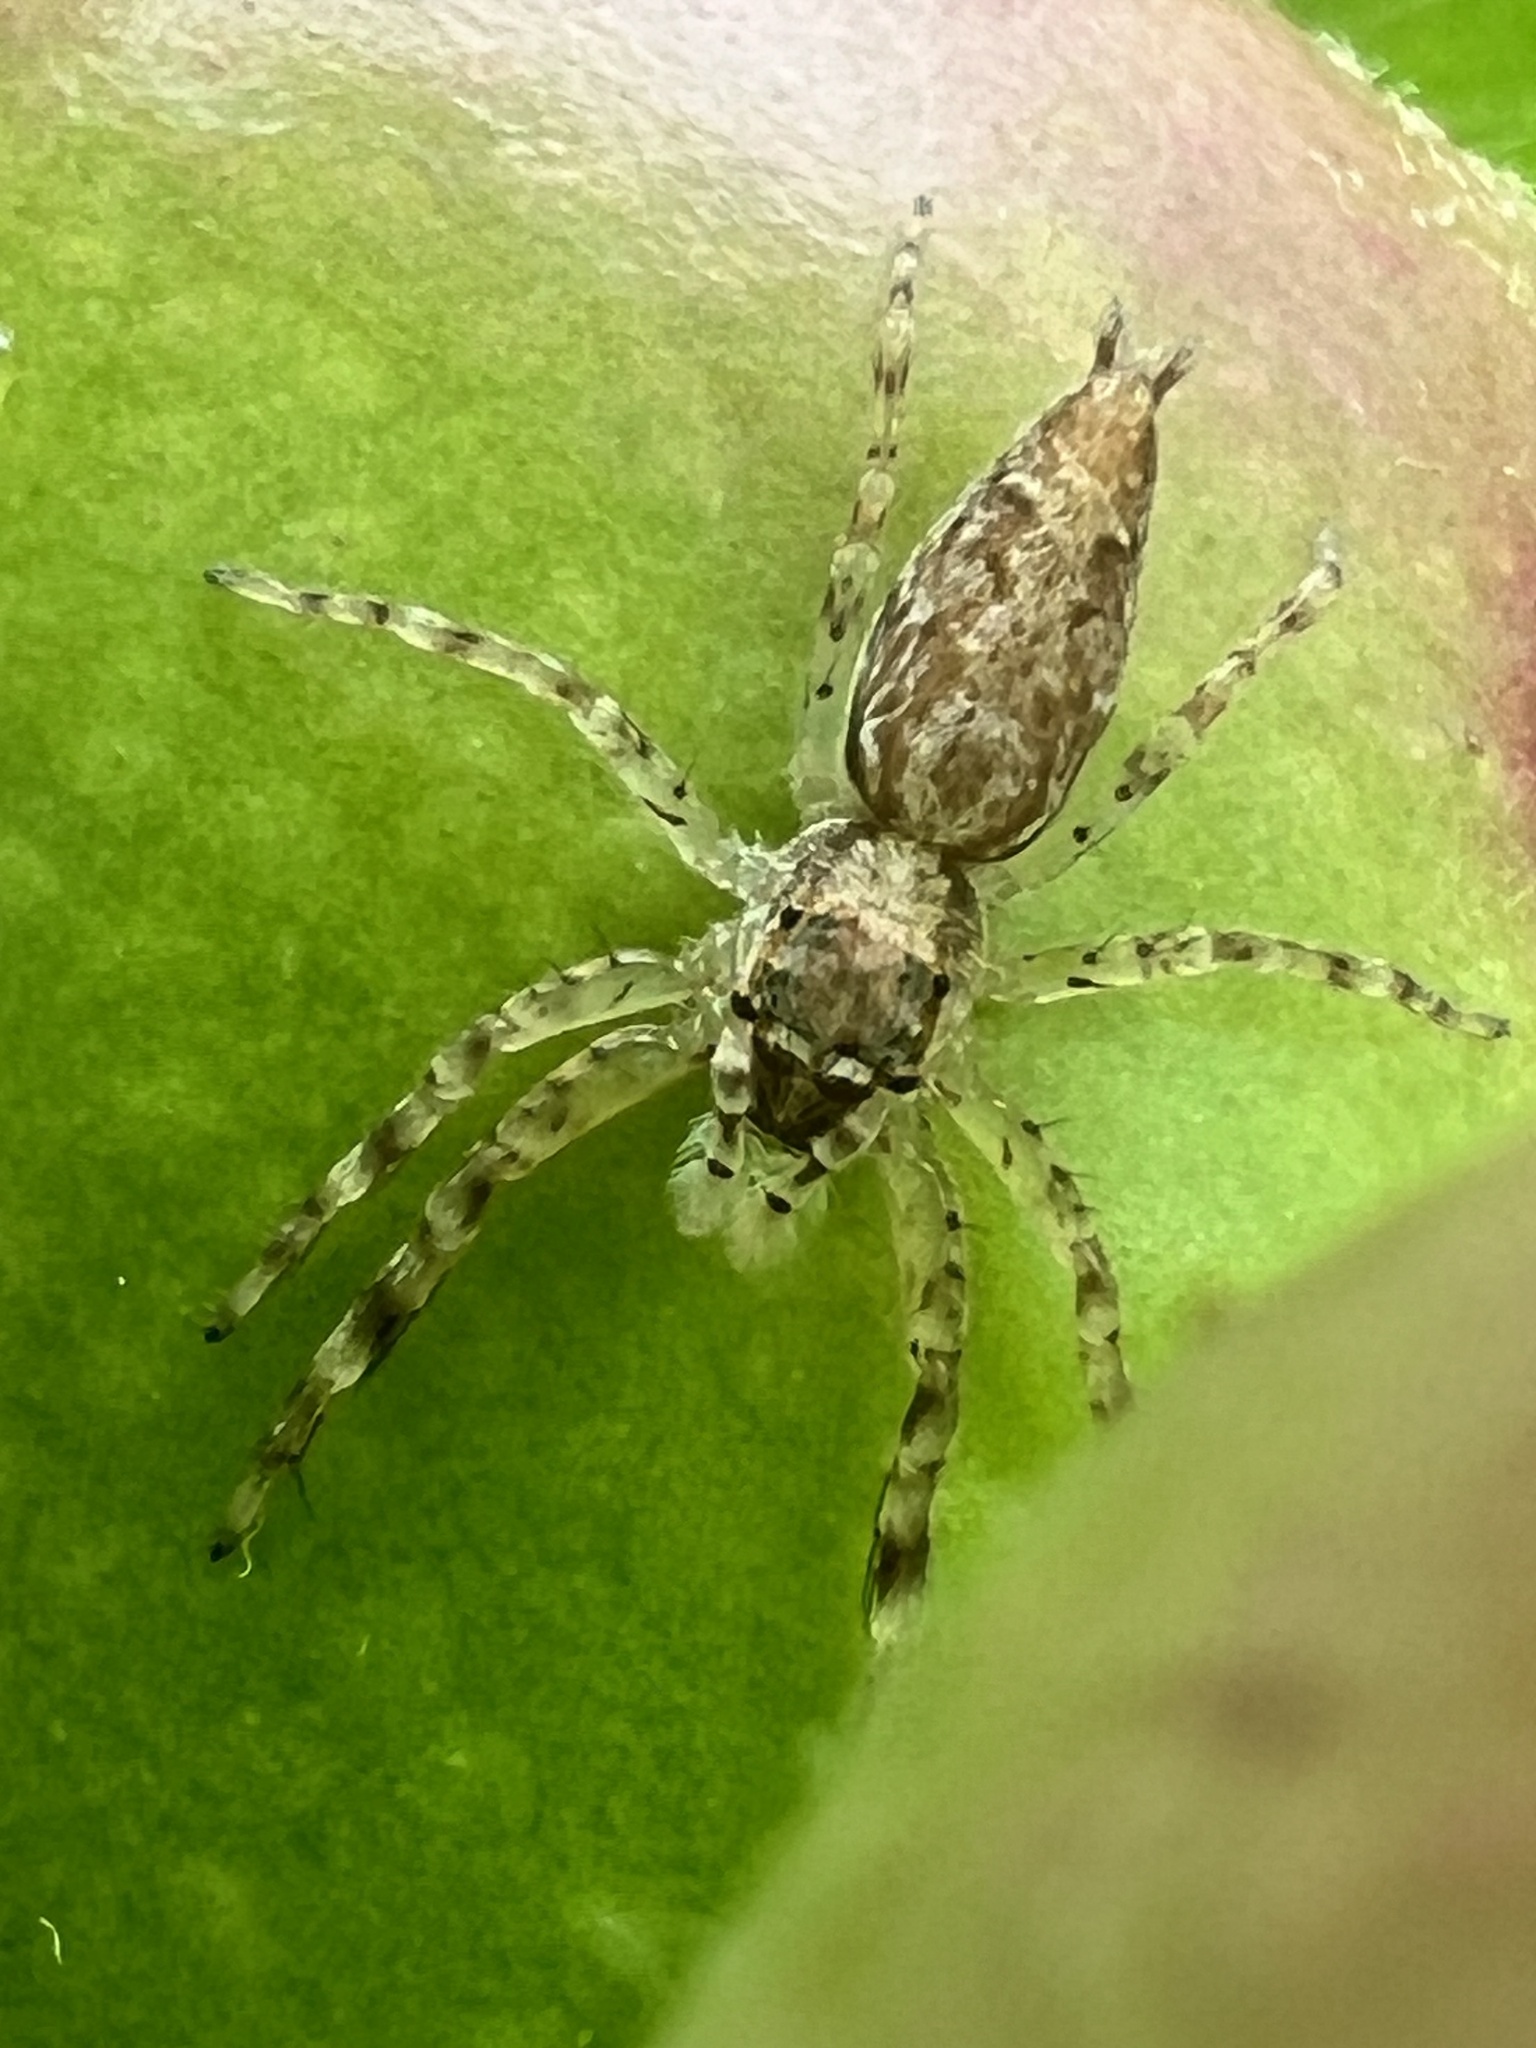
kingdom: Animalia
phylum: Arthropoda
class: Arachnida
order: Araneae
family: Salticidae
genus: Helpis
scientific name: Helpis minitabunda
